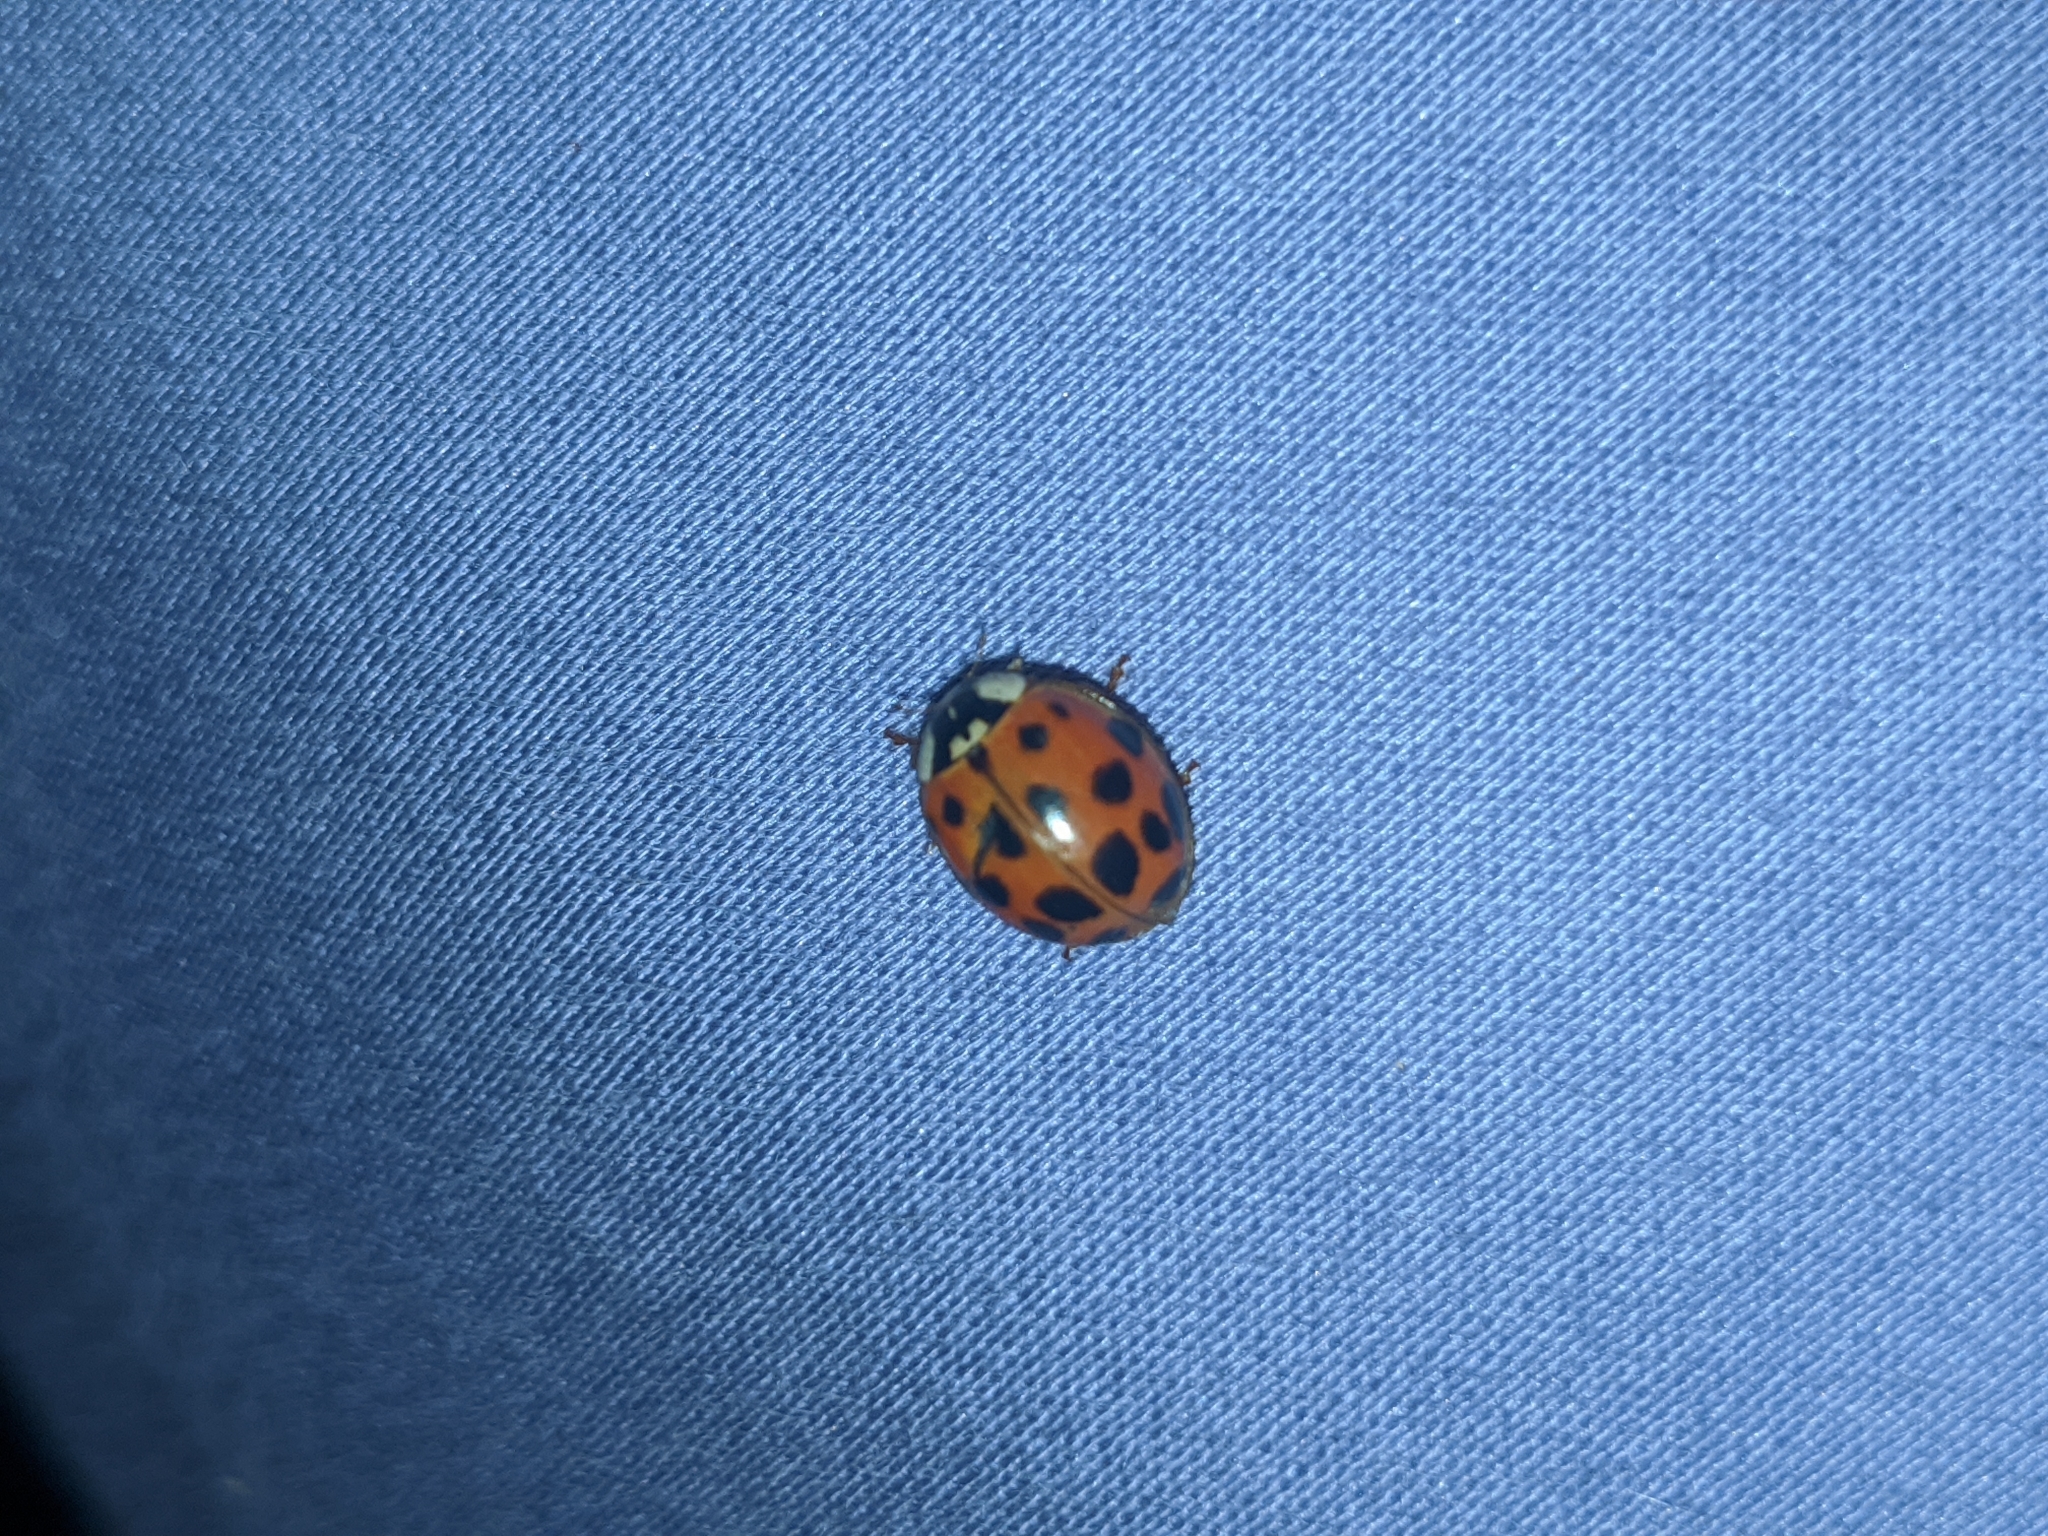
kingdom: Animalia
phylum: Arthropoda
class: Insecta
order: Coleoptera
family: Coccinellidae
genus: Harmonia
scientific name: Harmonia axyridis
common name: Harlequin ladybird
